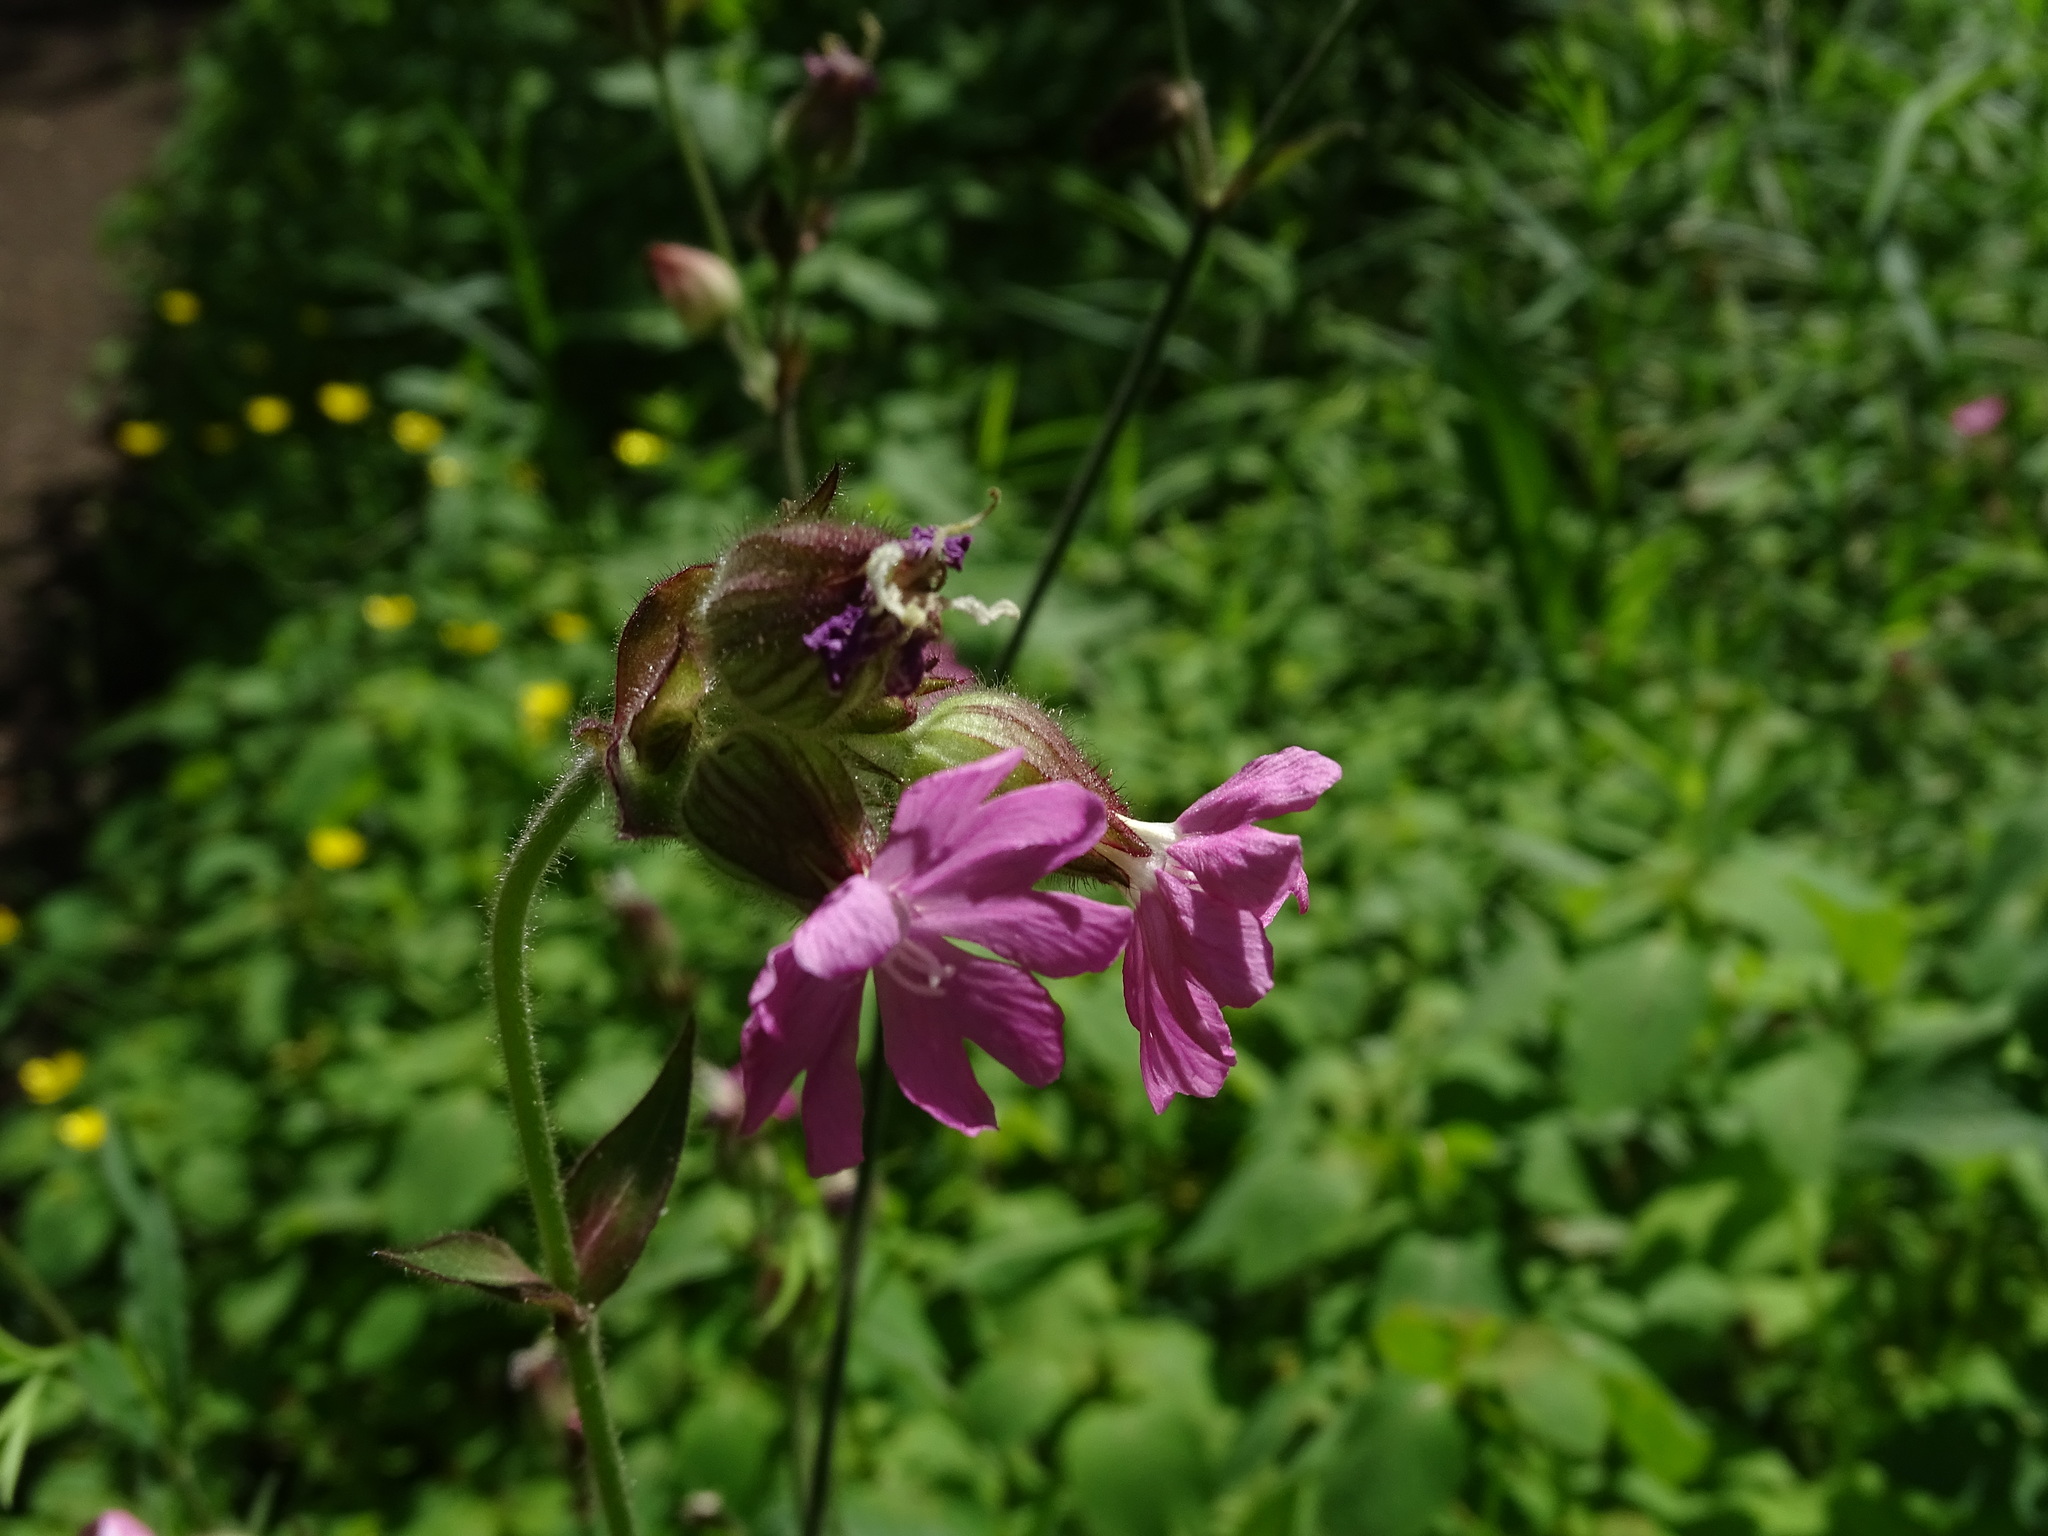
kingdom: Plantae
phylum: Tracheophyta
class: Magnoliopsida
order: Caryophyllales
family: Caryophyllaceae
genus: Silene
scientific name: Silene dioica
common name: Red campion
